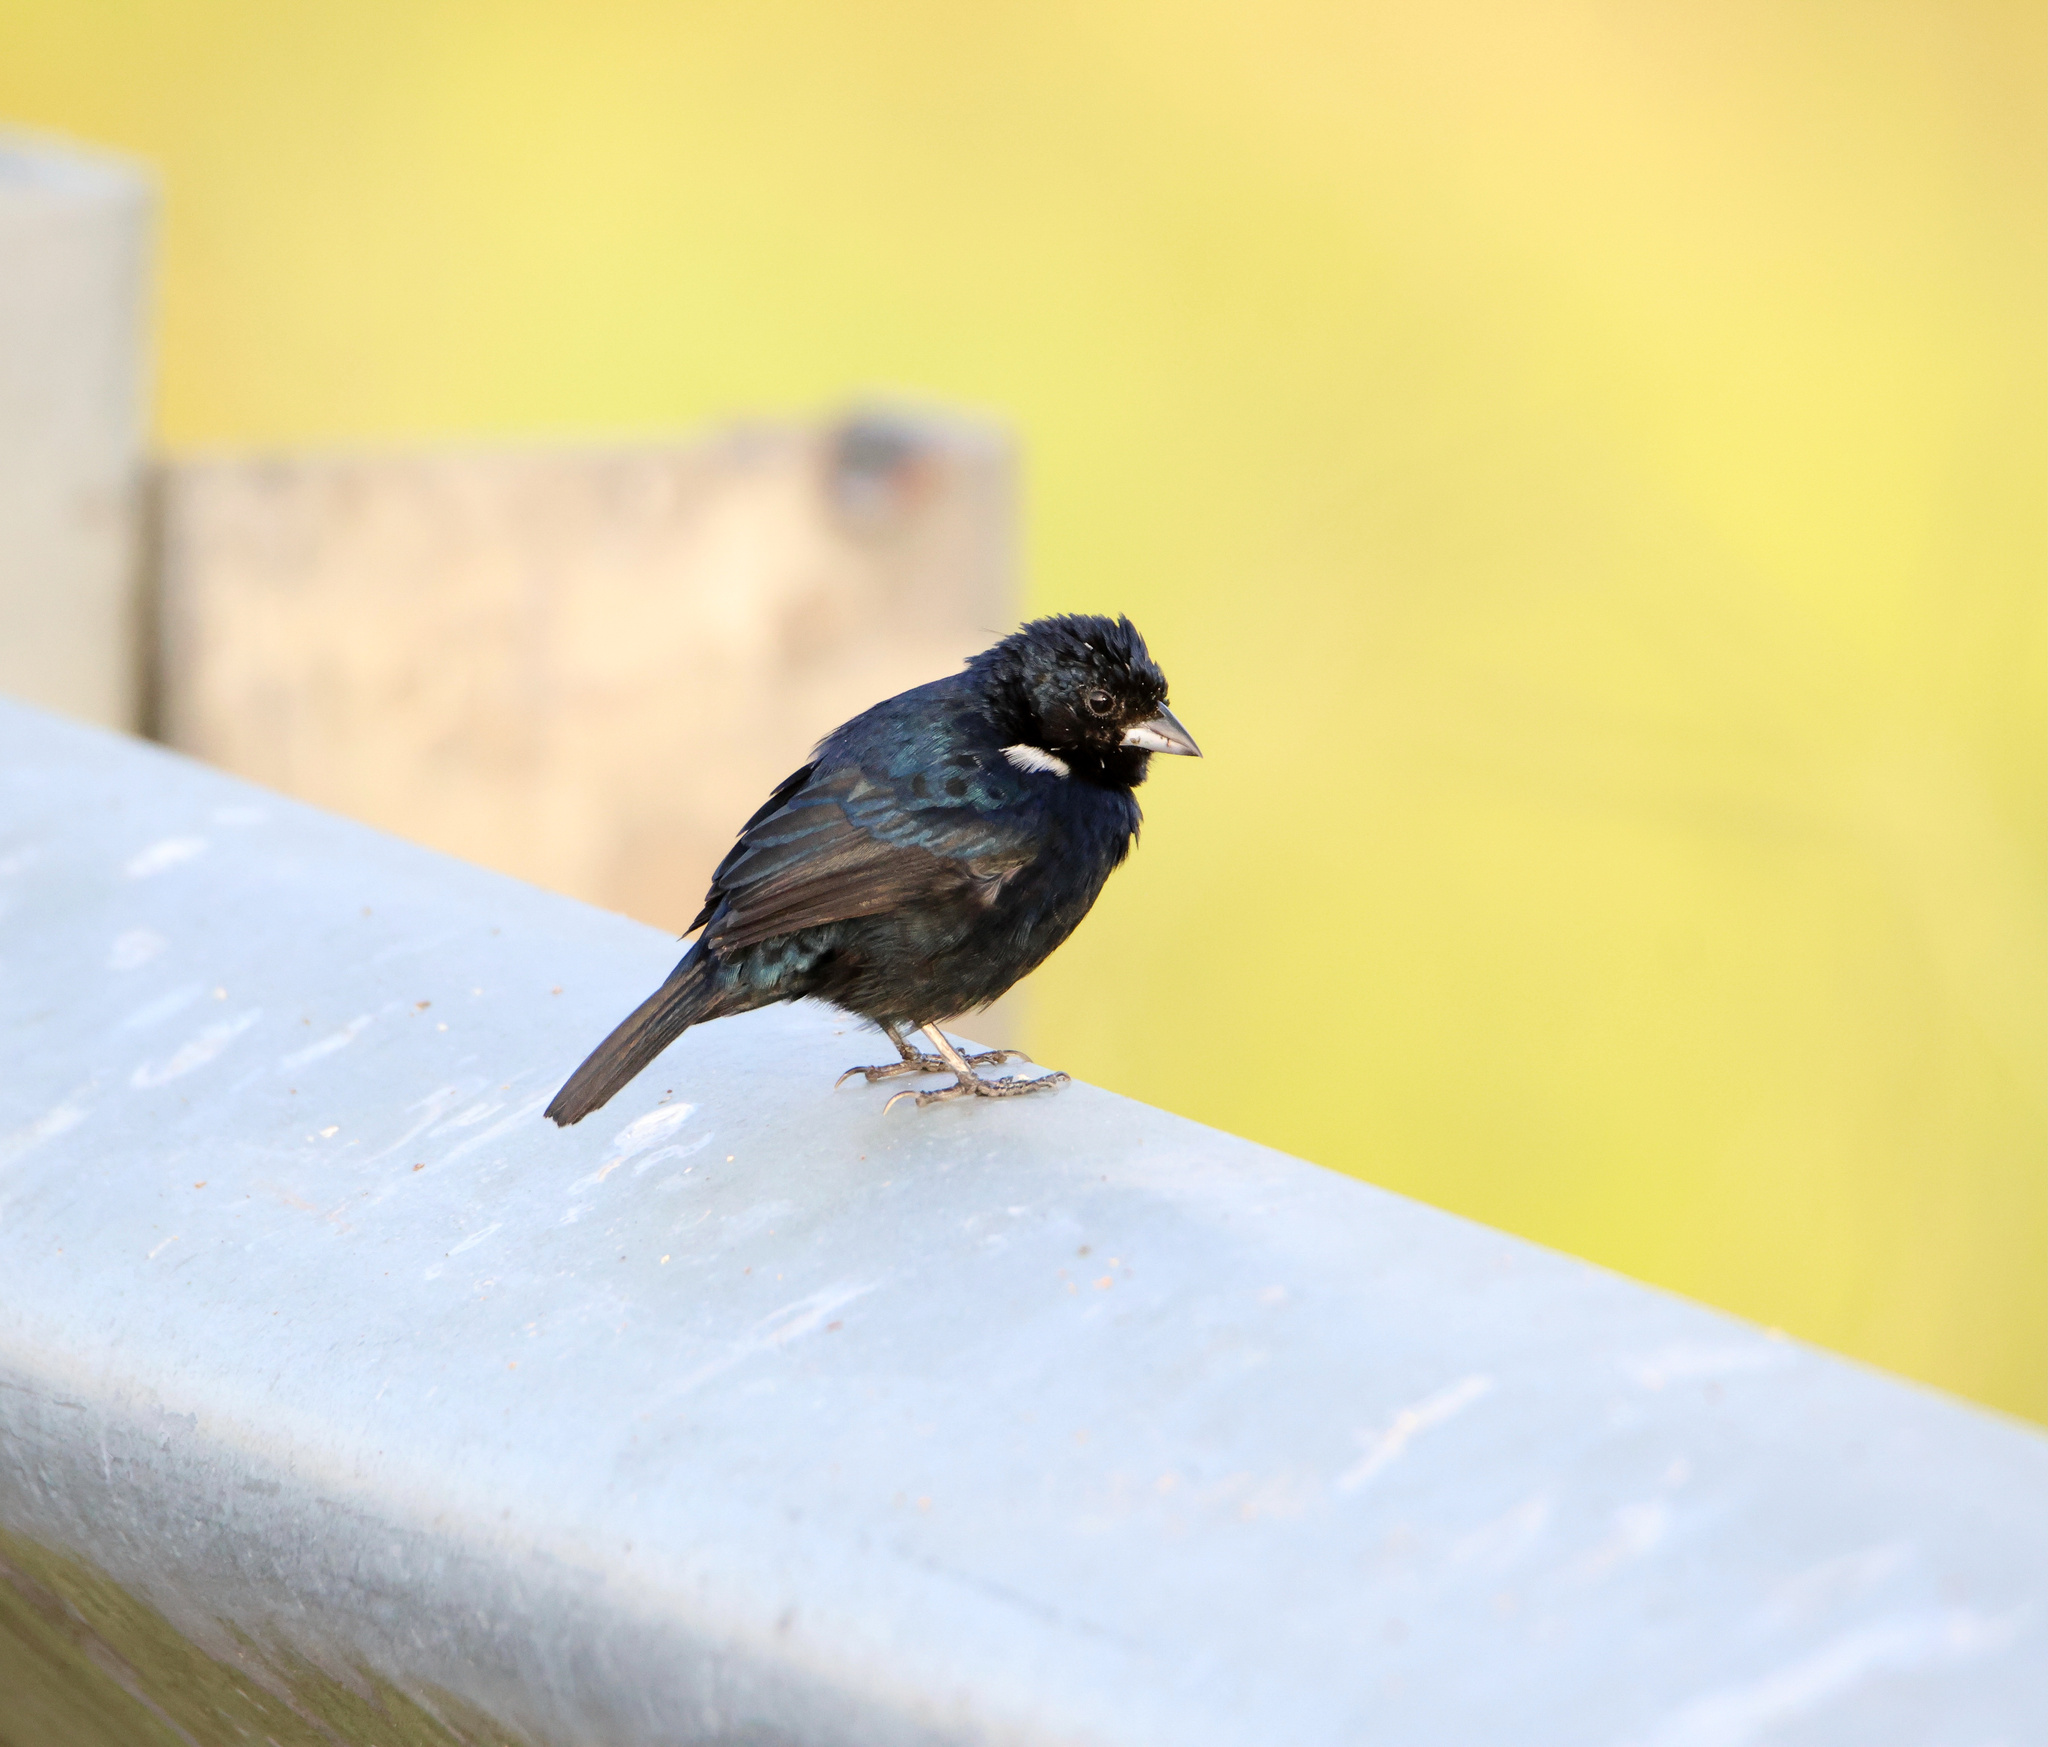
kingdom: Animalia
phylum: Chordata
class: Aves
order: Passeriformes
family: Thraupidae
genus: Volatinia
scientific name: Volatinia jacarina
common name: Blue-black grassquit
